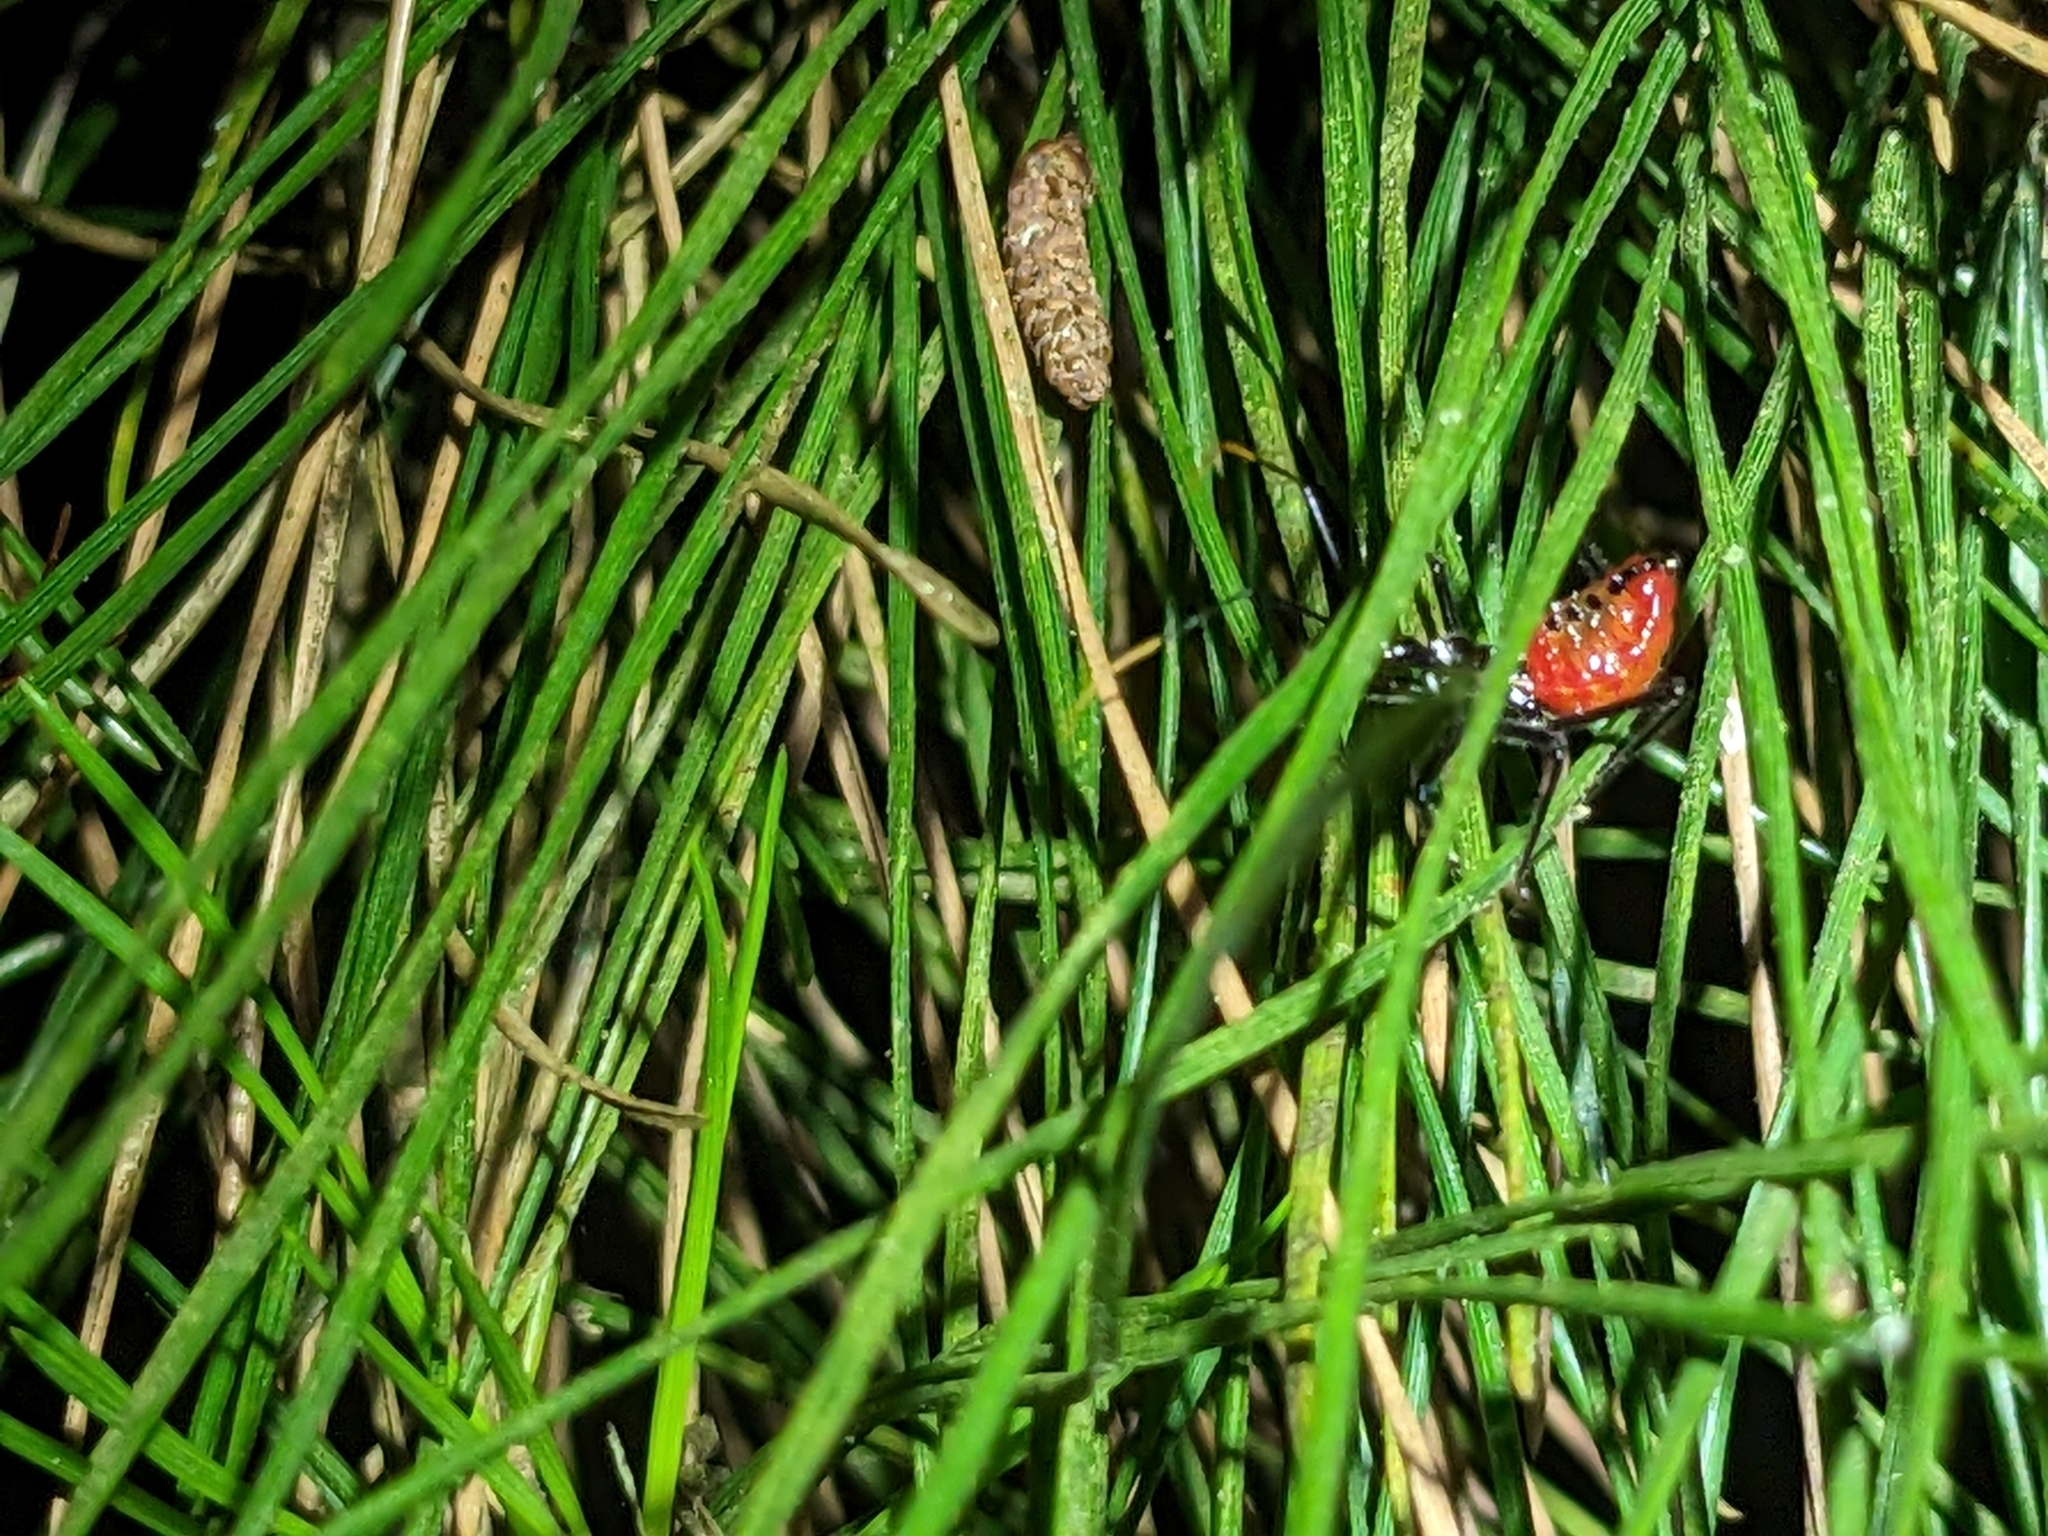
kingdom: Animalia
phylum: Arthropoda
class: Insecta
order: Hemiptera
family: Reduviidae
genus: Arilus
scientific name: Arilus cristatus
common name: North american wheel bug
